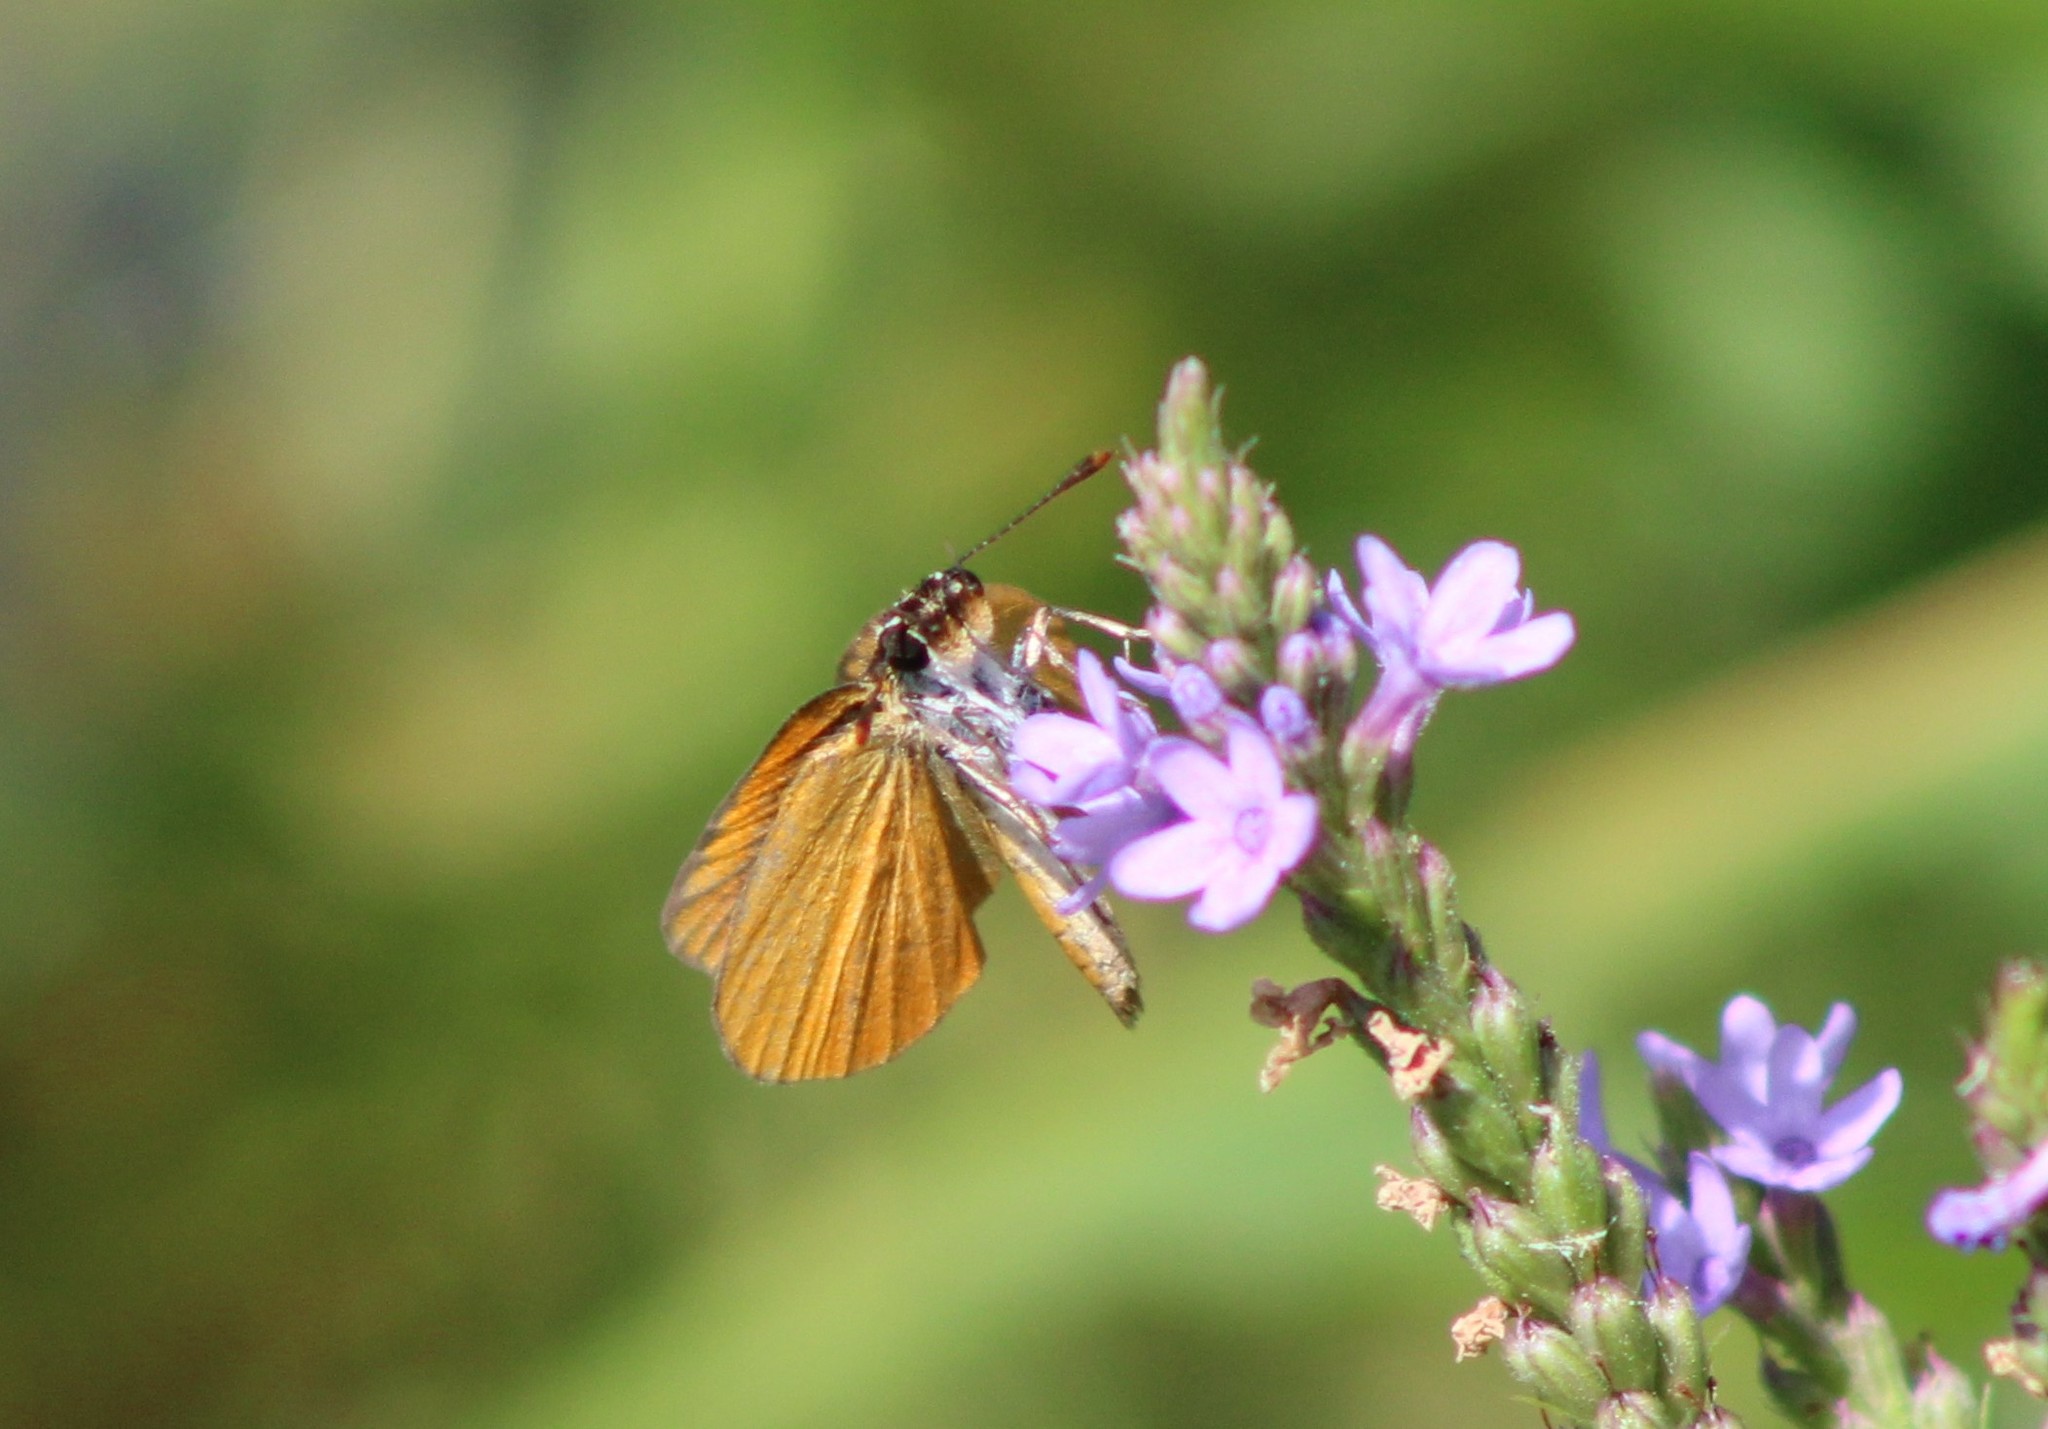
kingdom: Animalia
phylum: Arthropoda
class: Insecta
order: Lepidoptera
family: Hesperiidae
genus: Ancyloxypha
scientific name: Ancyloxypha numitor
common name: Least skipper
